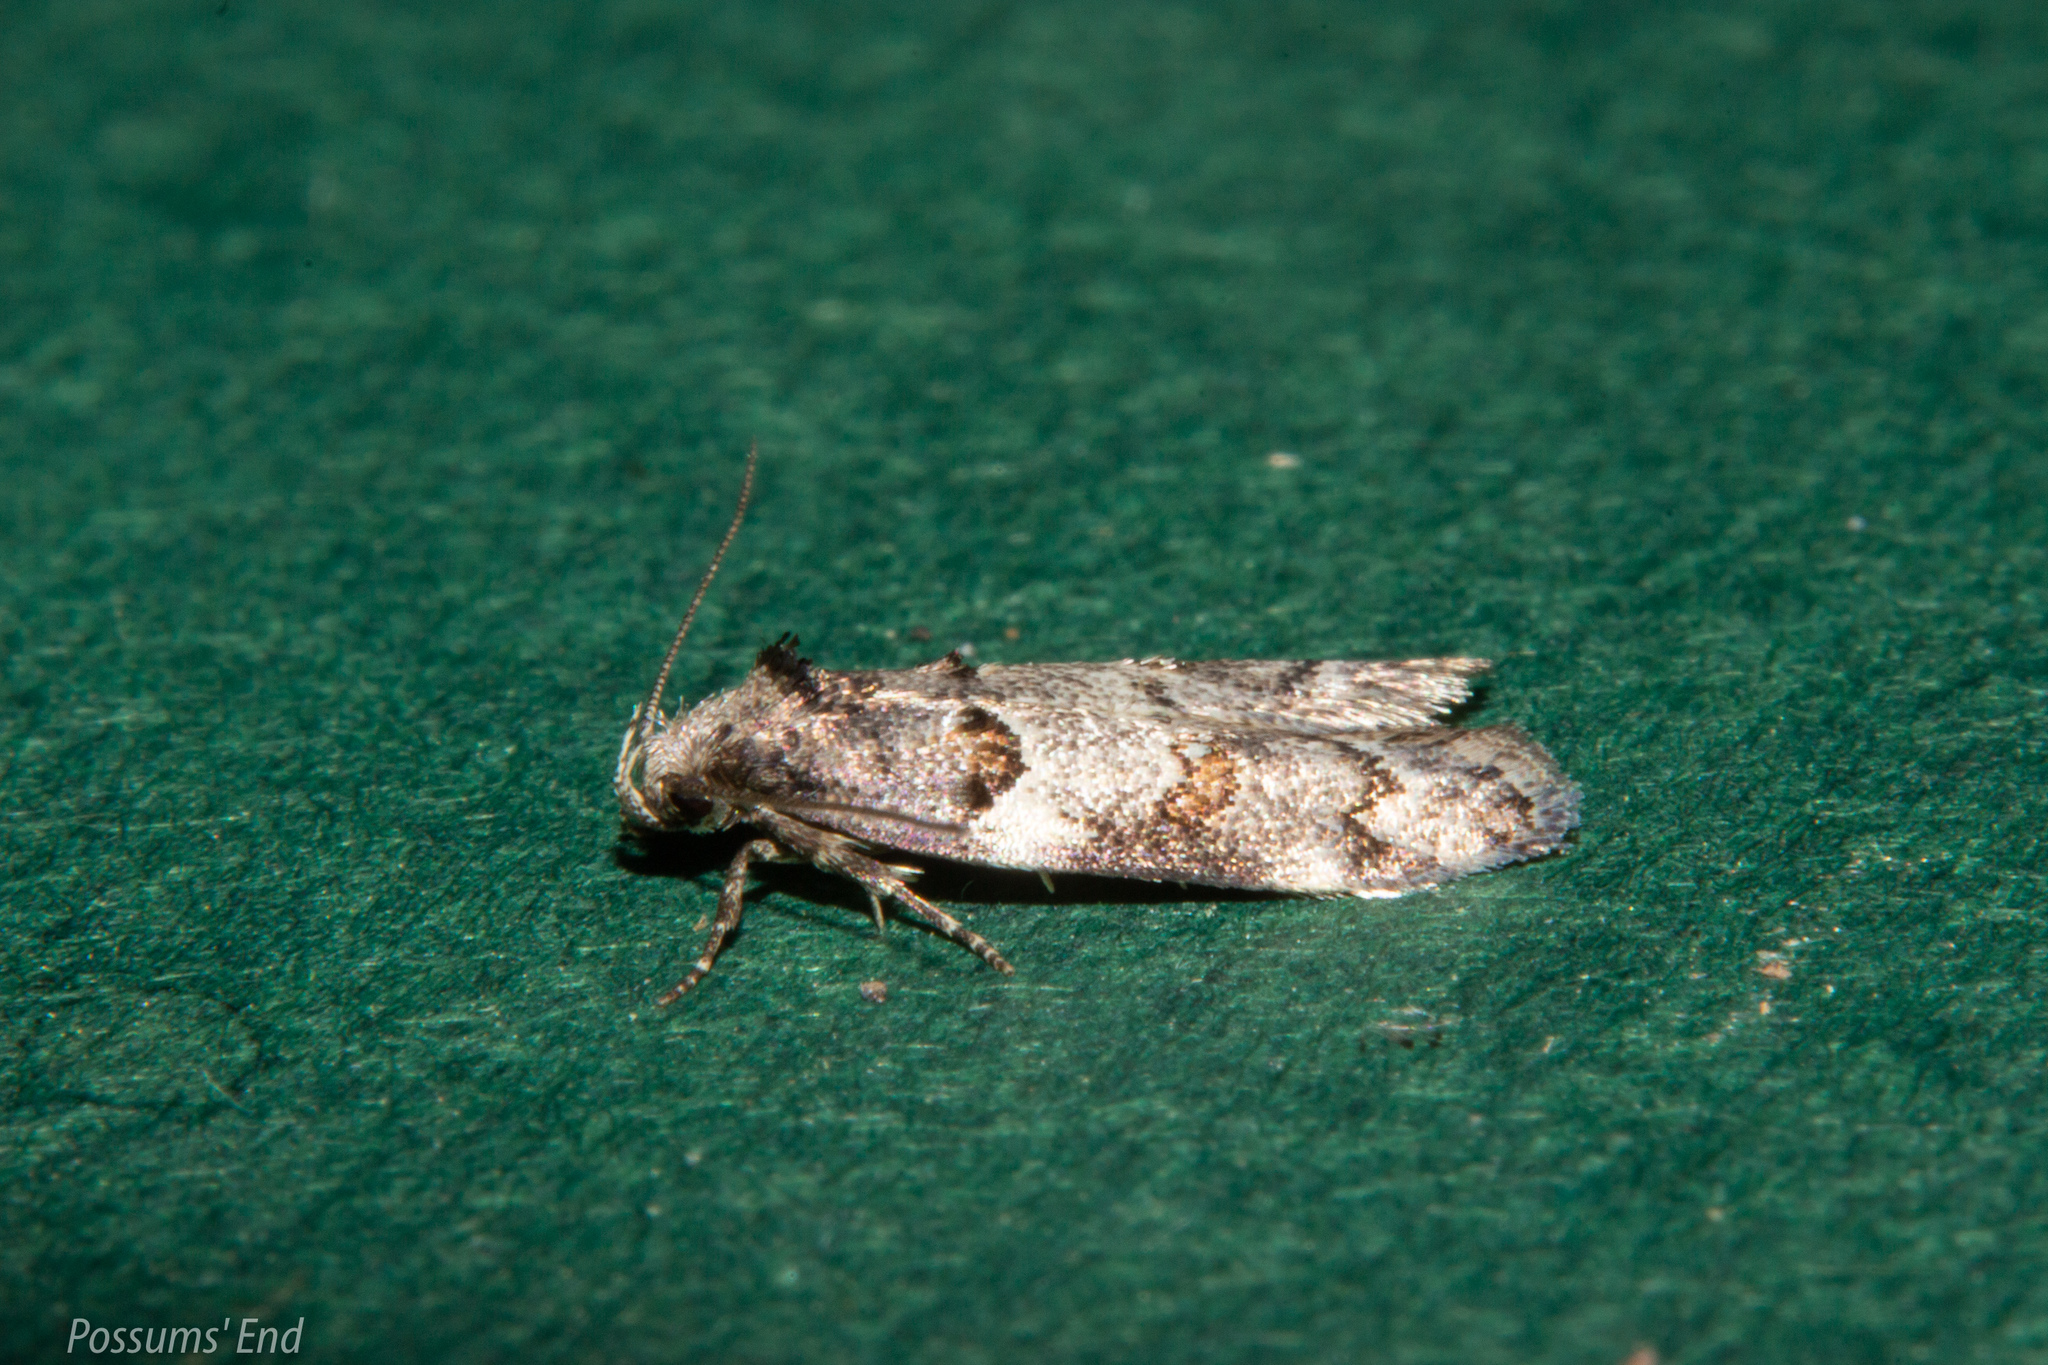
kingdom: Animalia
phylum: Arthropoda
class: Insecta
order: Lepidoptera
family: Oecophoridae
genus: Trachypepla
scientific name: Trachypepla contritella
